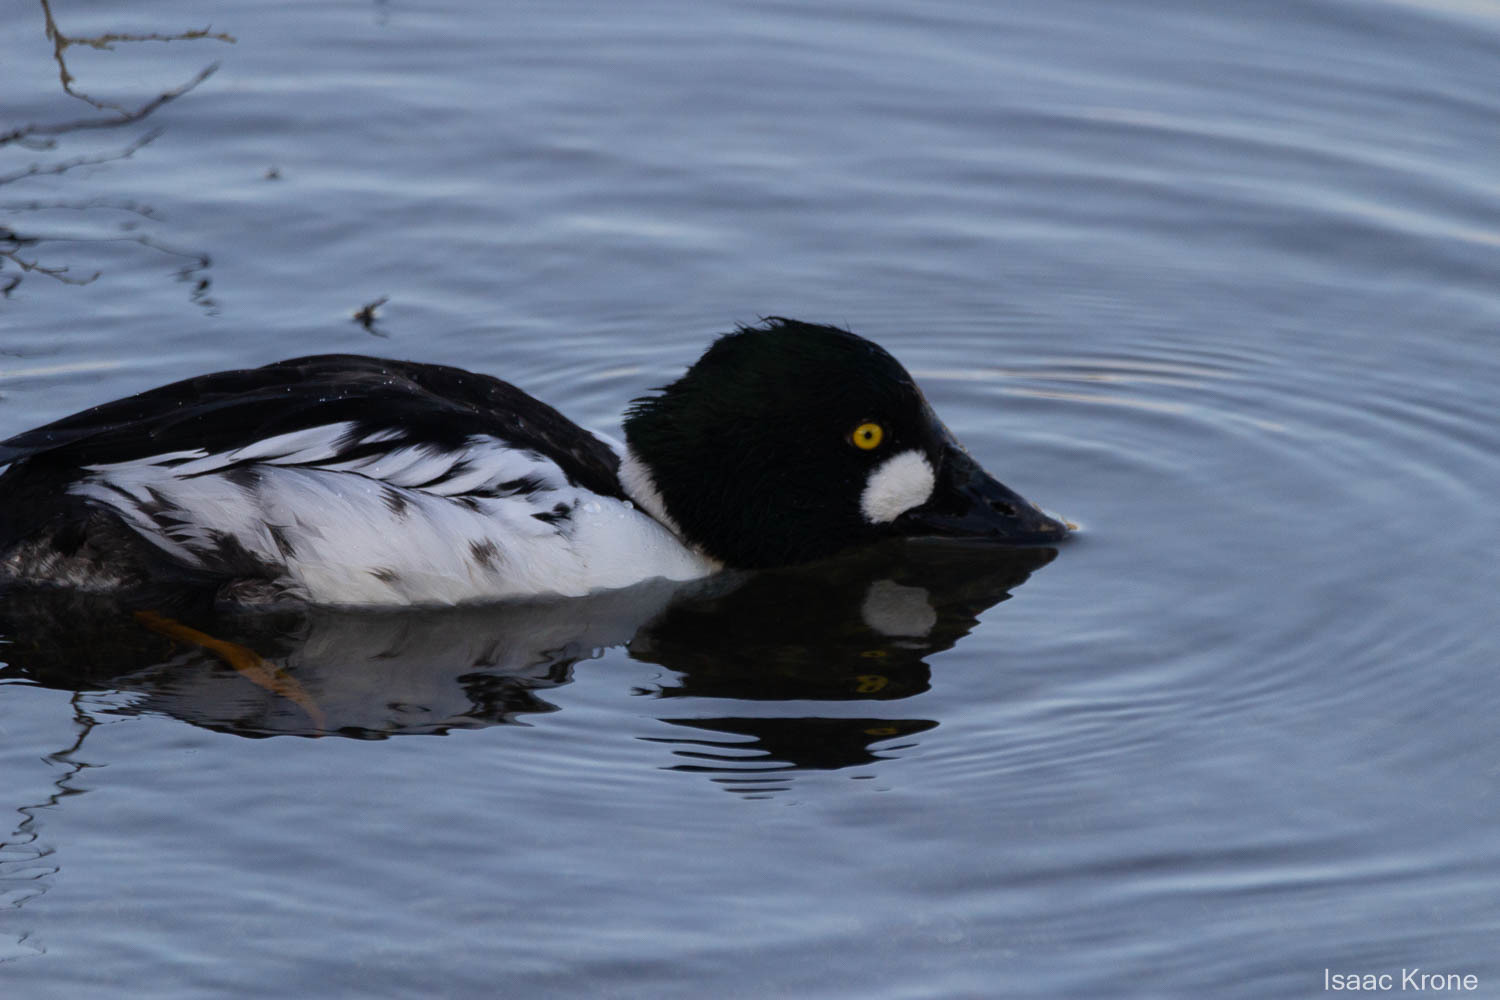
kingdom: Animalia
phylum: Chordata
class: Aves
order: Anseriformes
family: Anatidae
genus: Bucephala
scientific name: Bucephala clangula
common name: Common goldeneye
